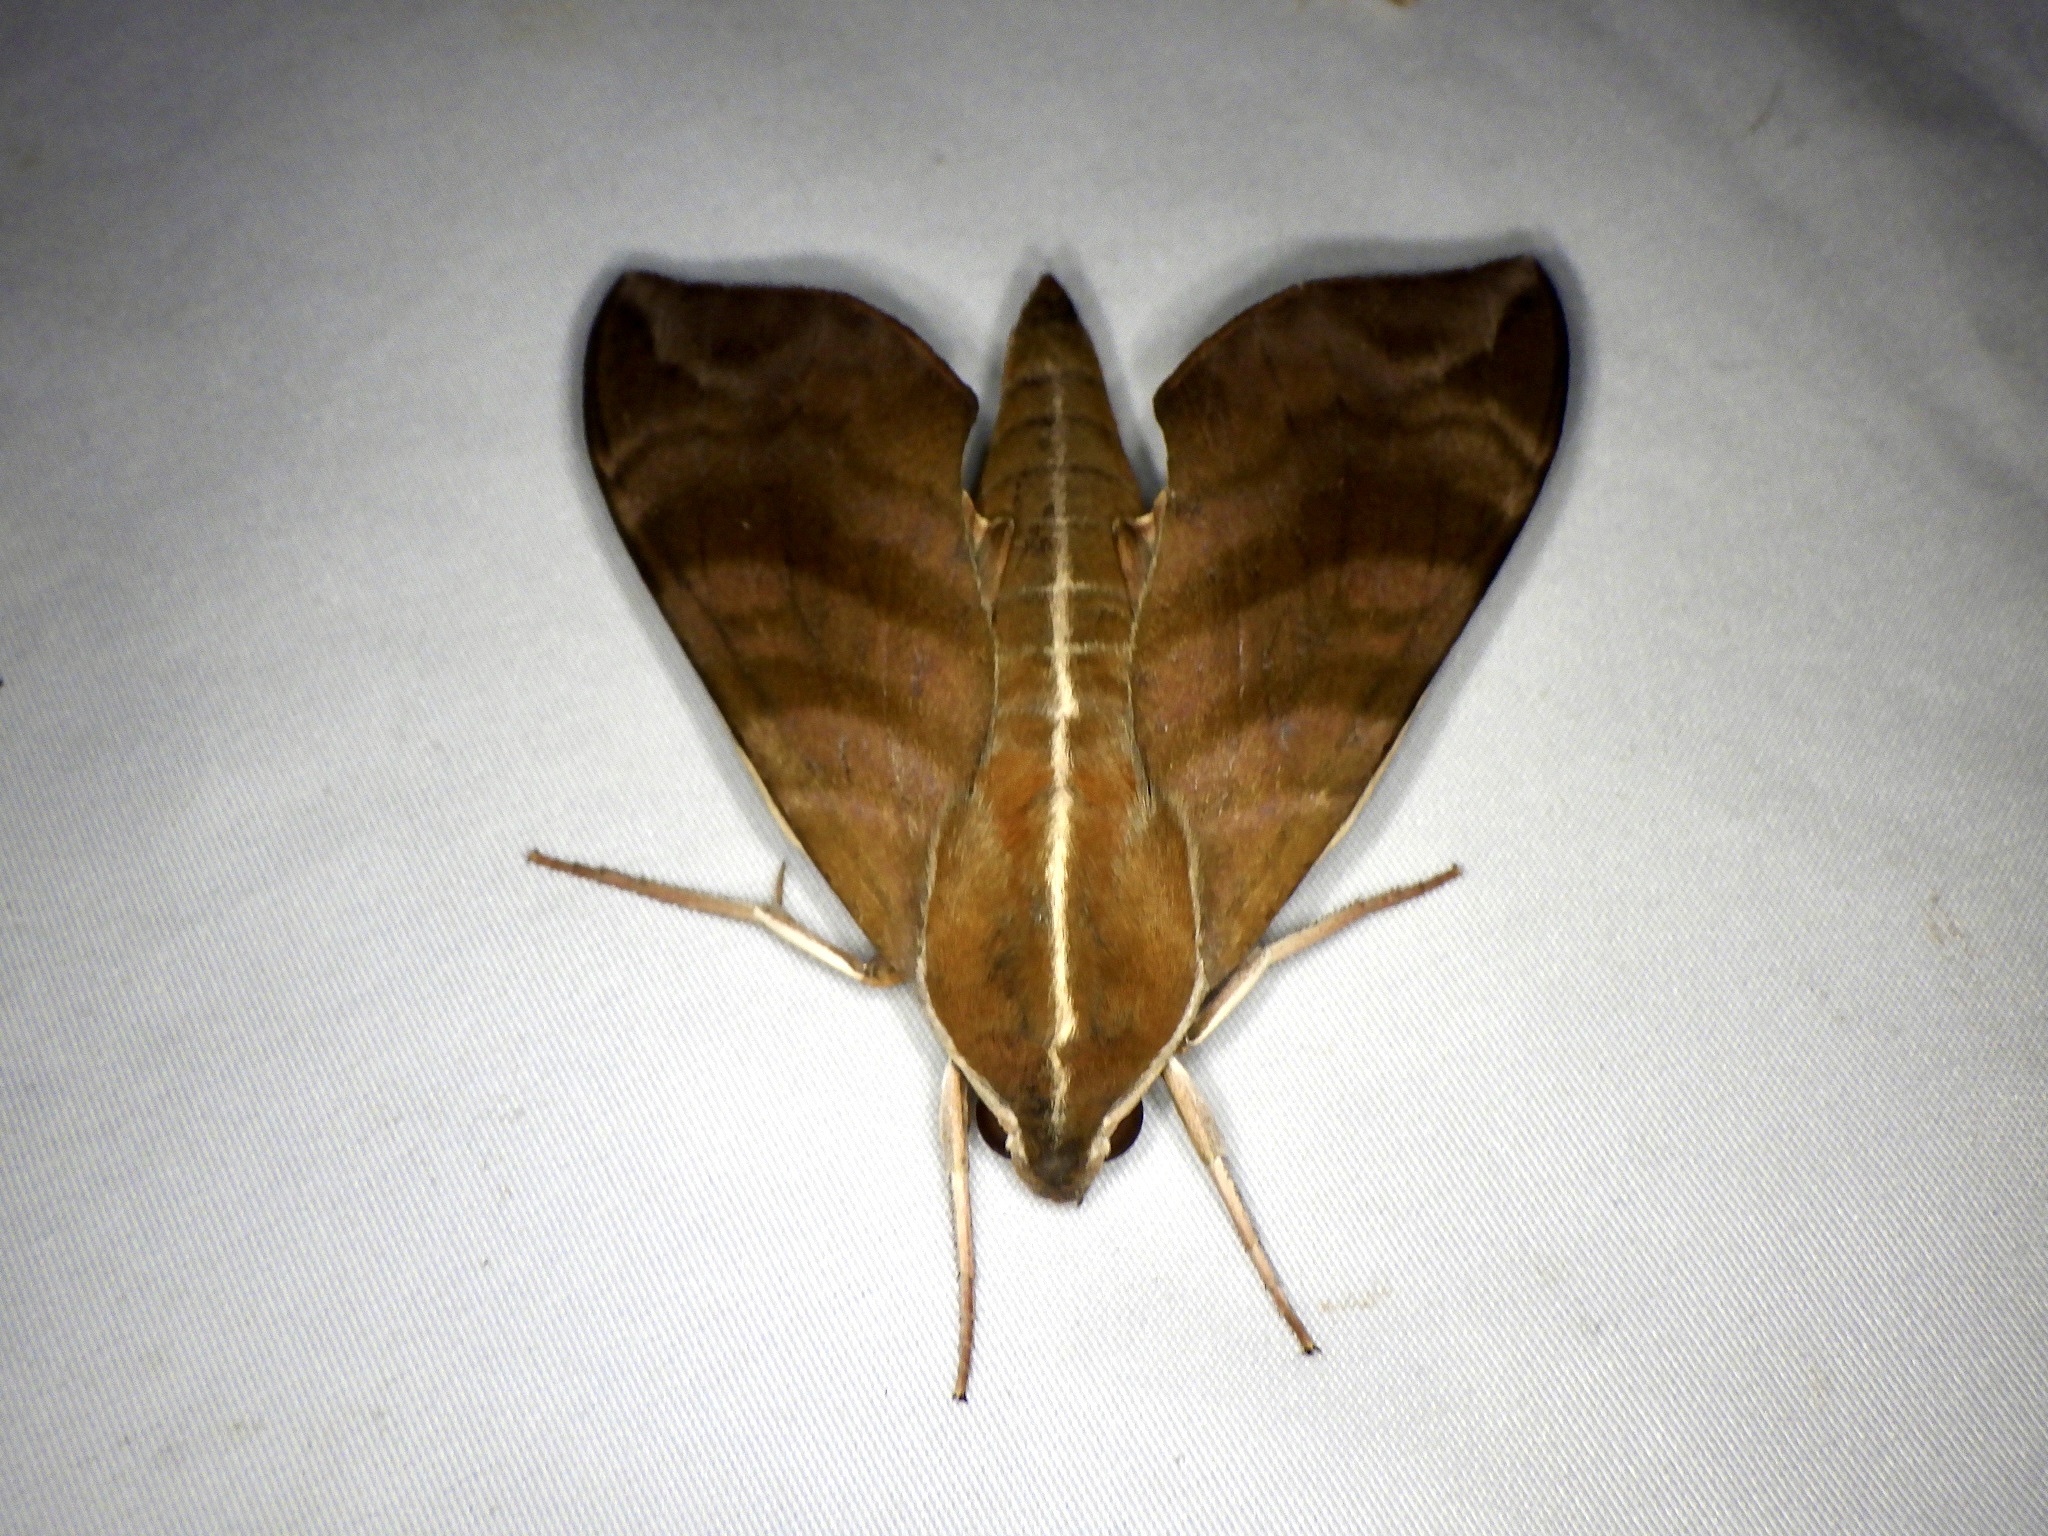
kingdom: Animalia
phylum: Arthropoda
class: Insecta
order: Lepidoptera
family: Sphingidae
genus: Ampelophaga
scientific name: Ampelophaga rubiginosa
